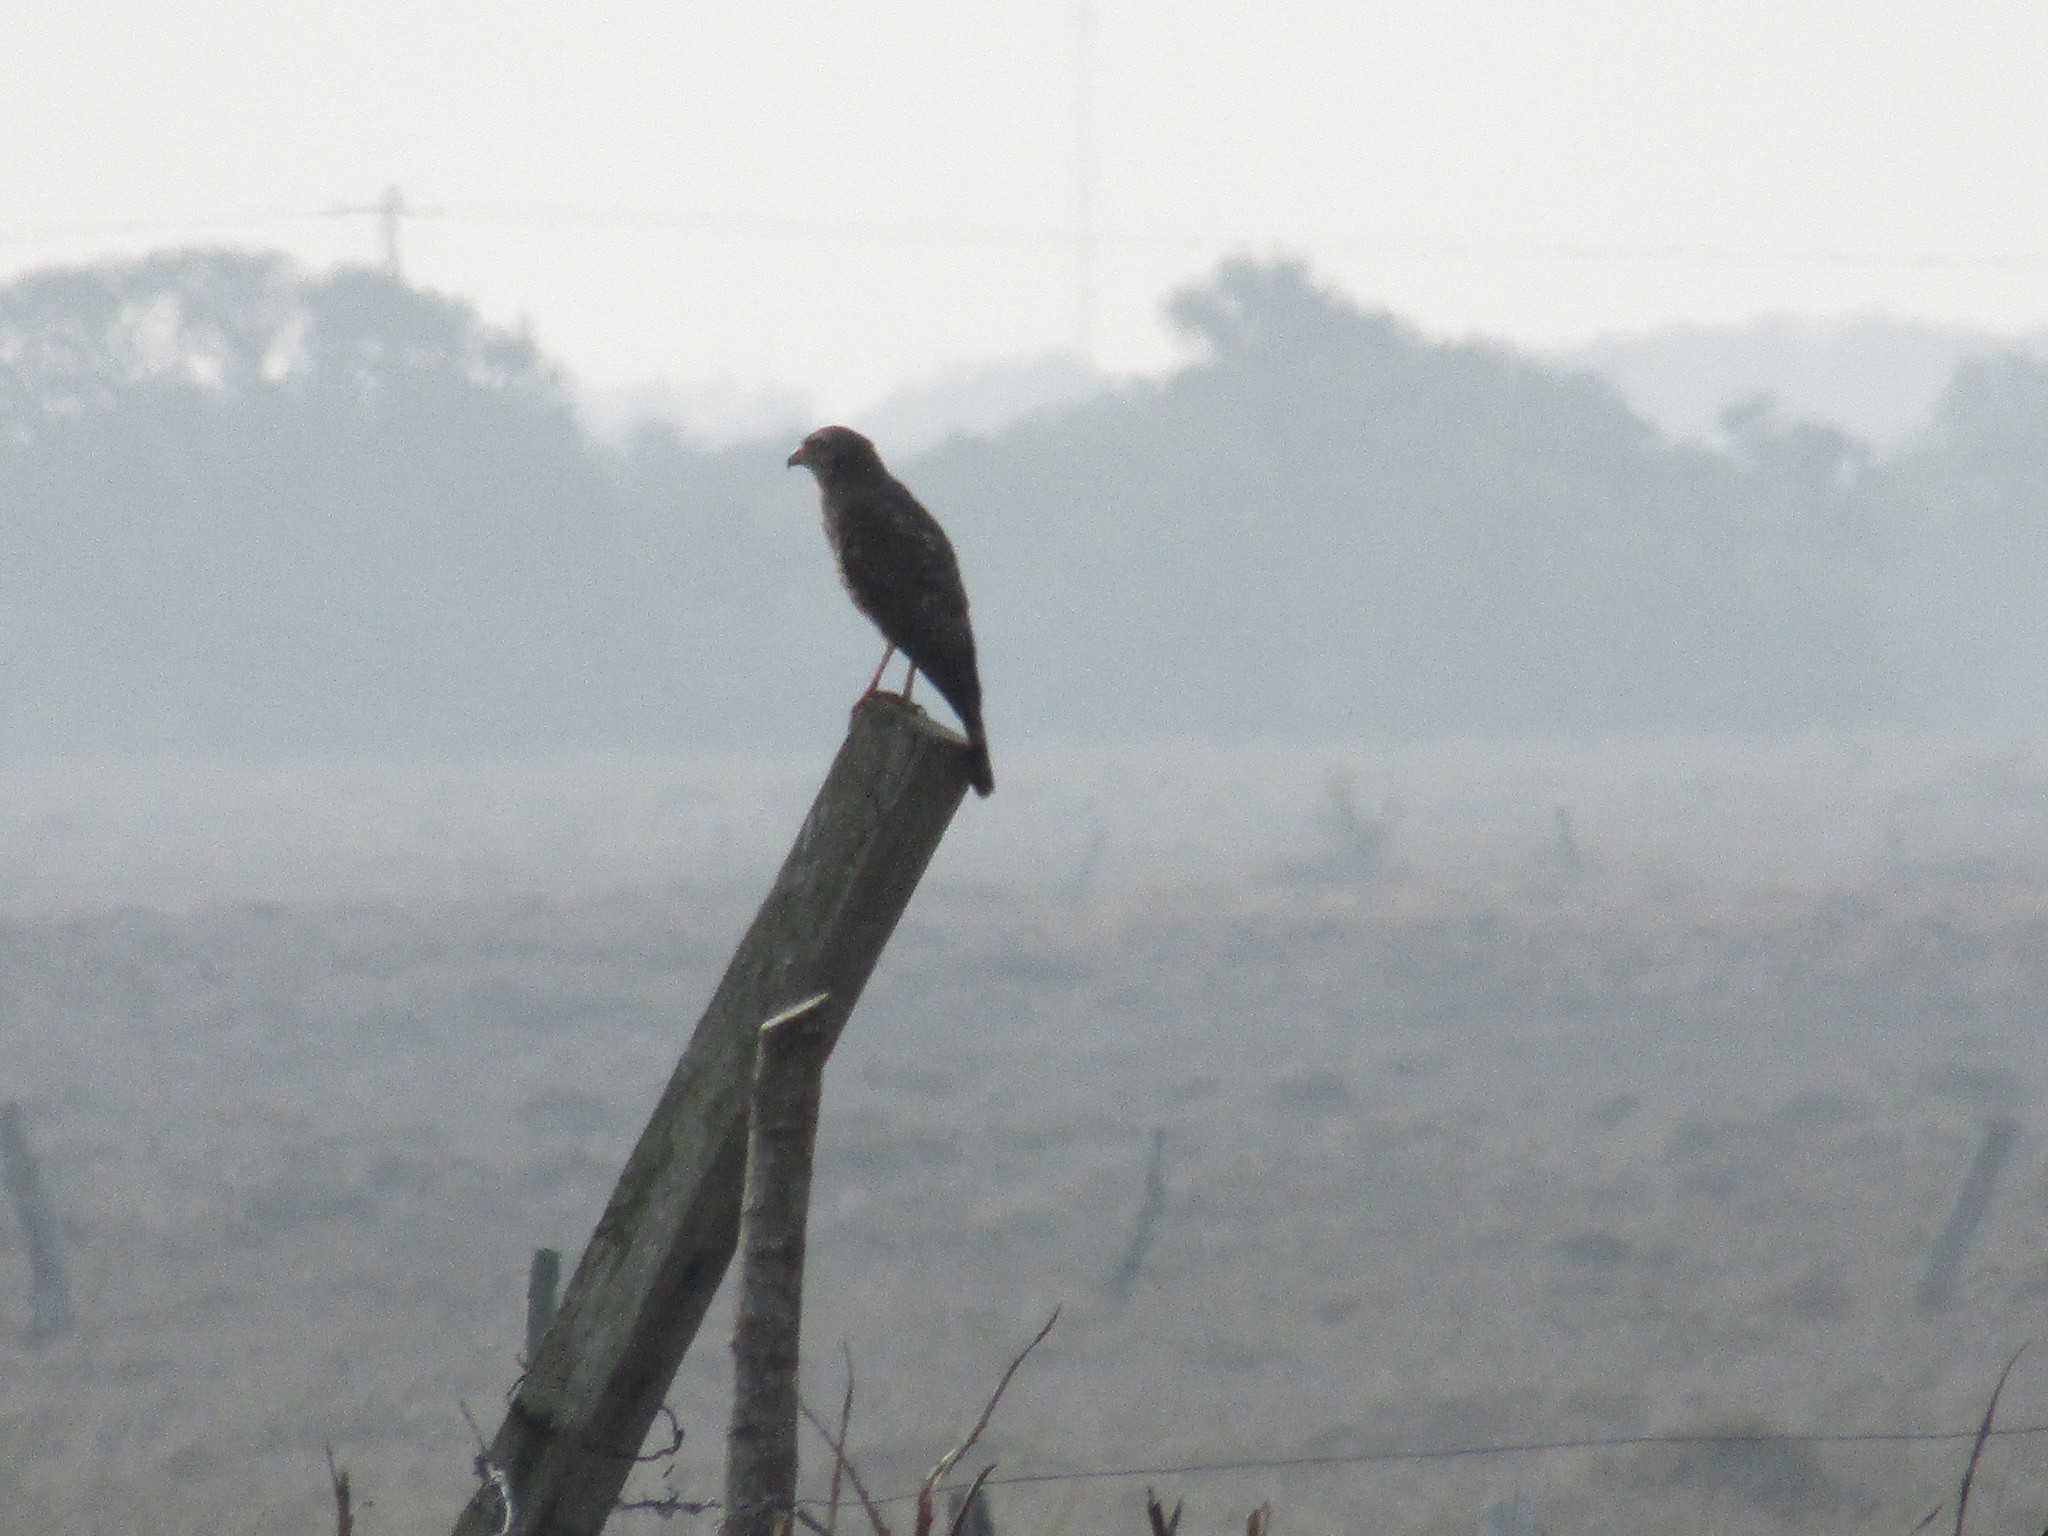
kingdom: Animalia
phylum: Chordata
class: Aves
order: Accipitriformes
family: Accipitridae
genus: Rupornis
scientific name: Rupornis magnirostris
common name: Roadside hawk
